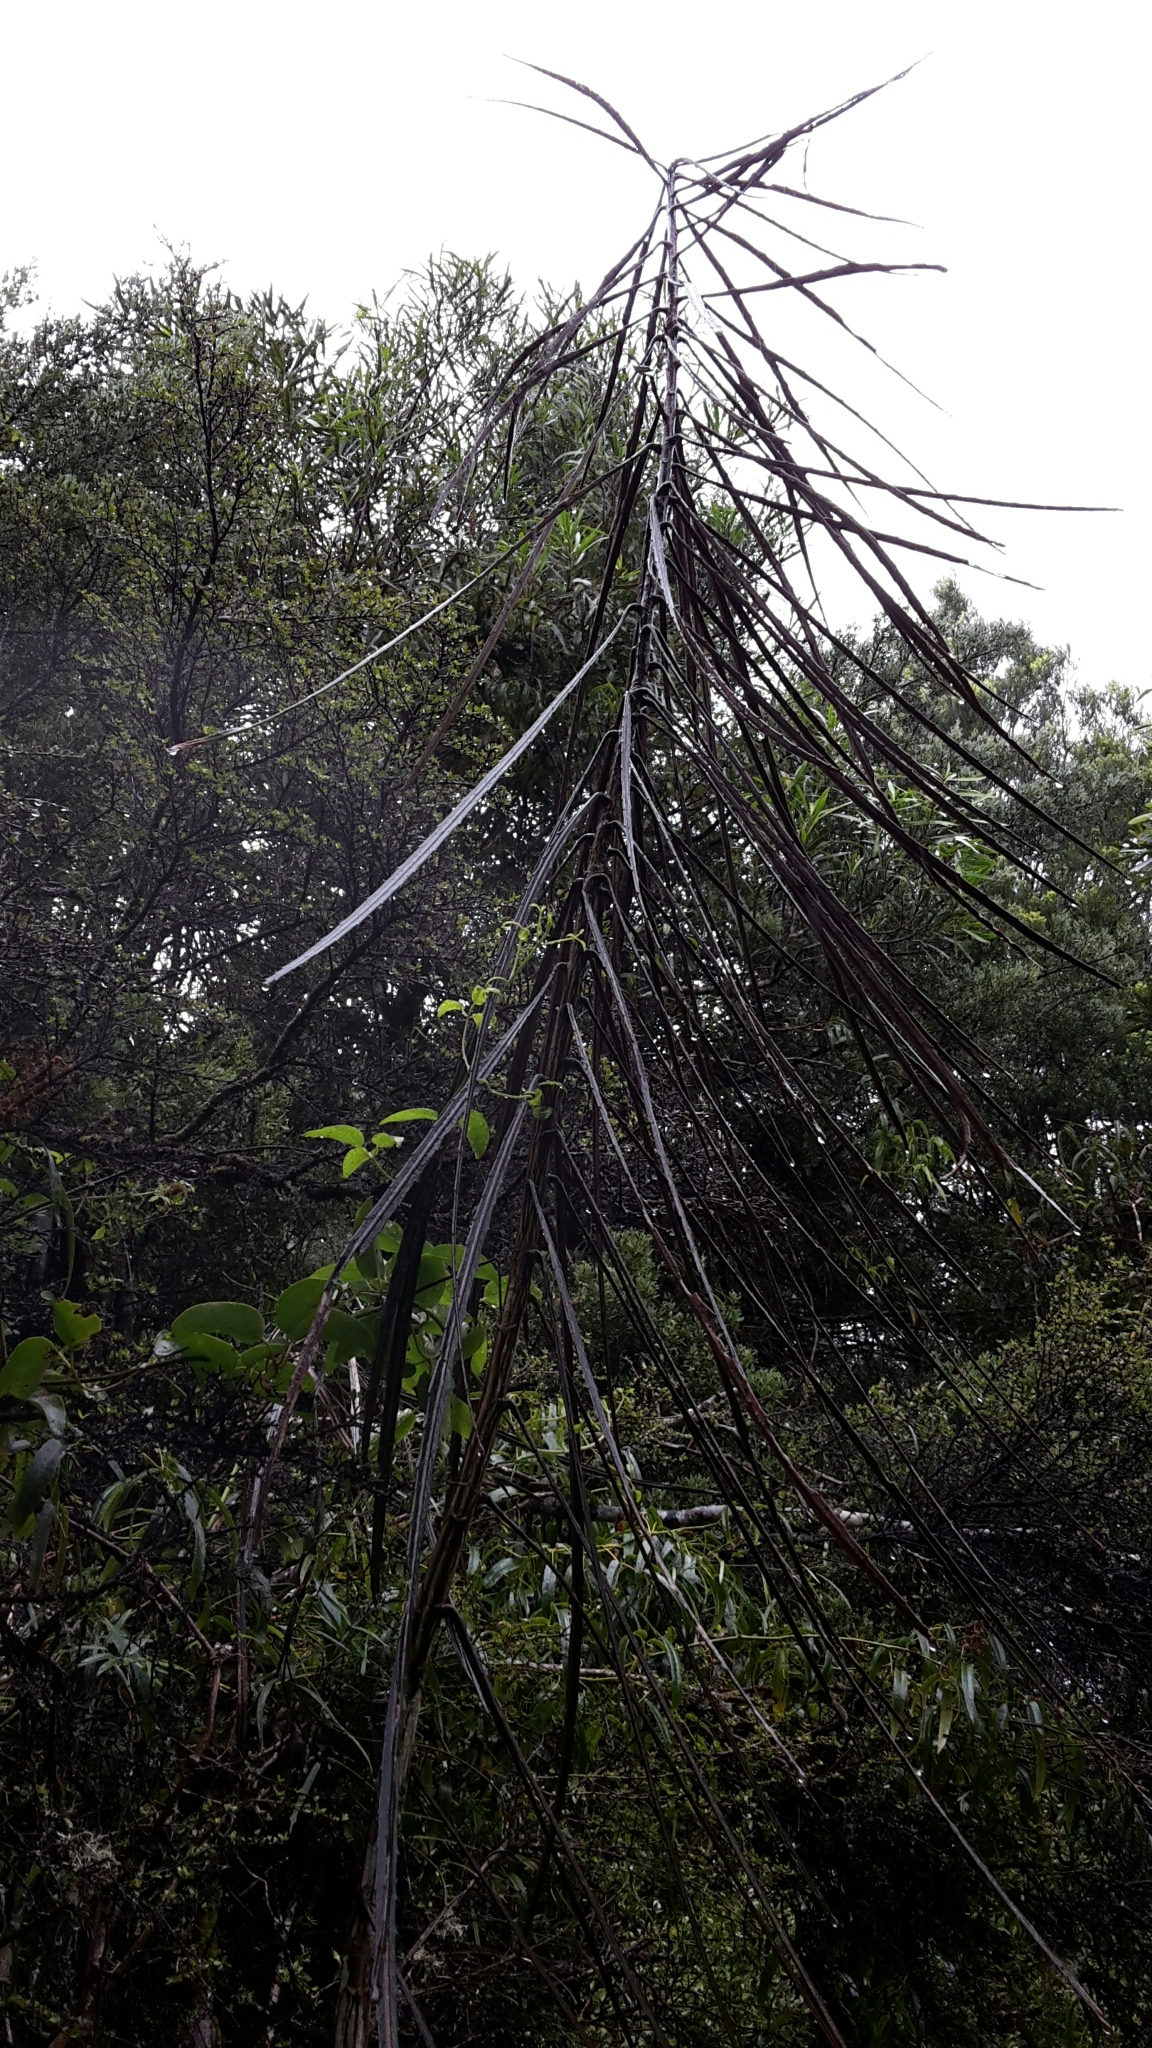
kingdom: Plantae
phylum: Tracheophyta
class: Magnoliopsida
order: Apiales
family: Araliaceae
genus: Pseudopanax
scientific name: Pseudopanax crassifolius
